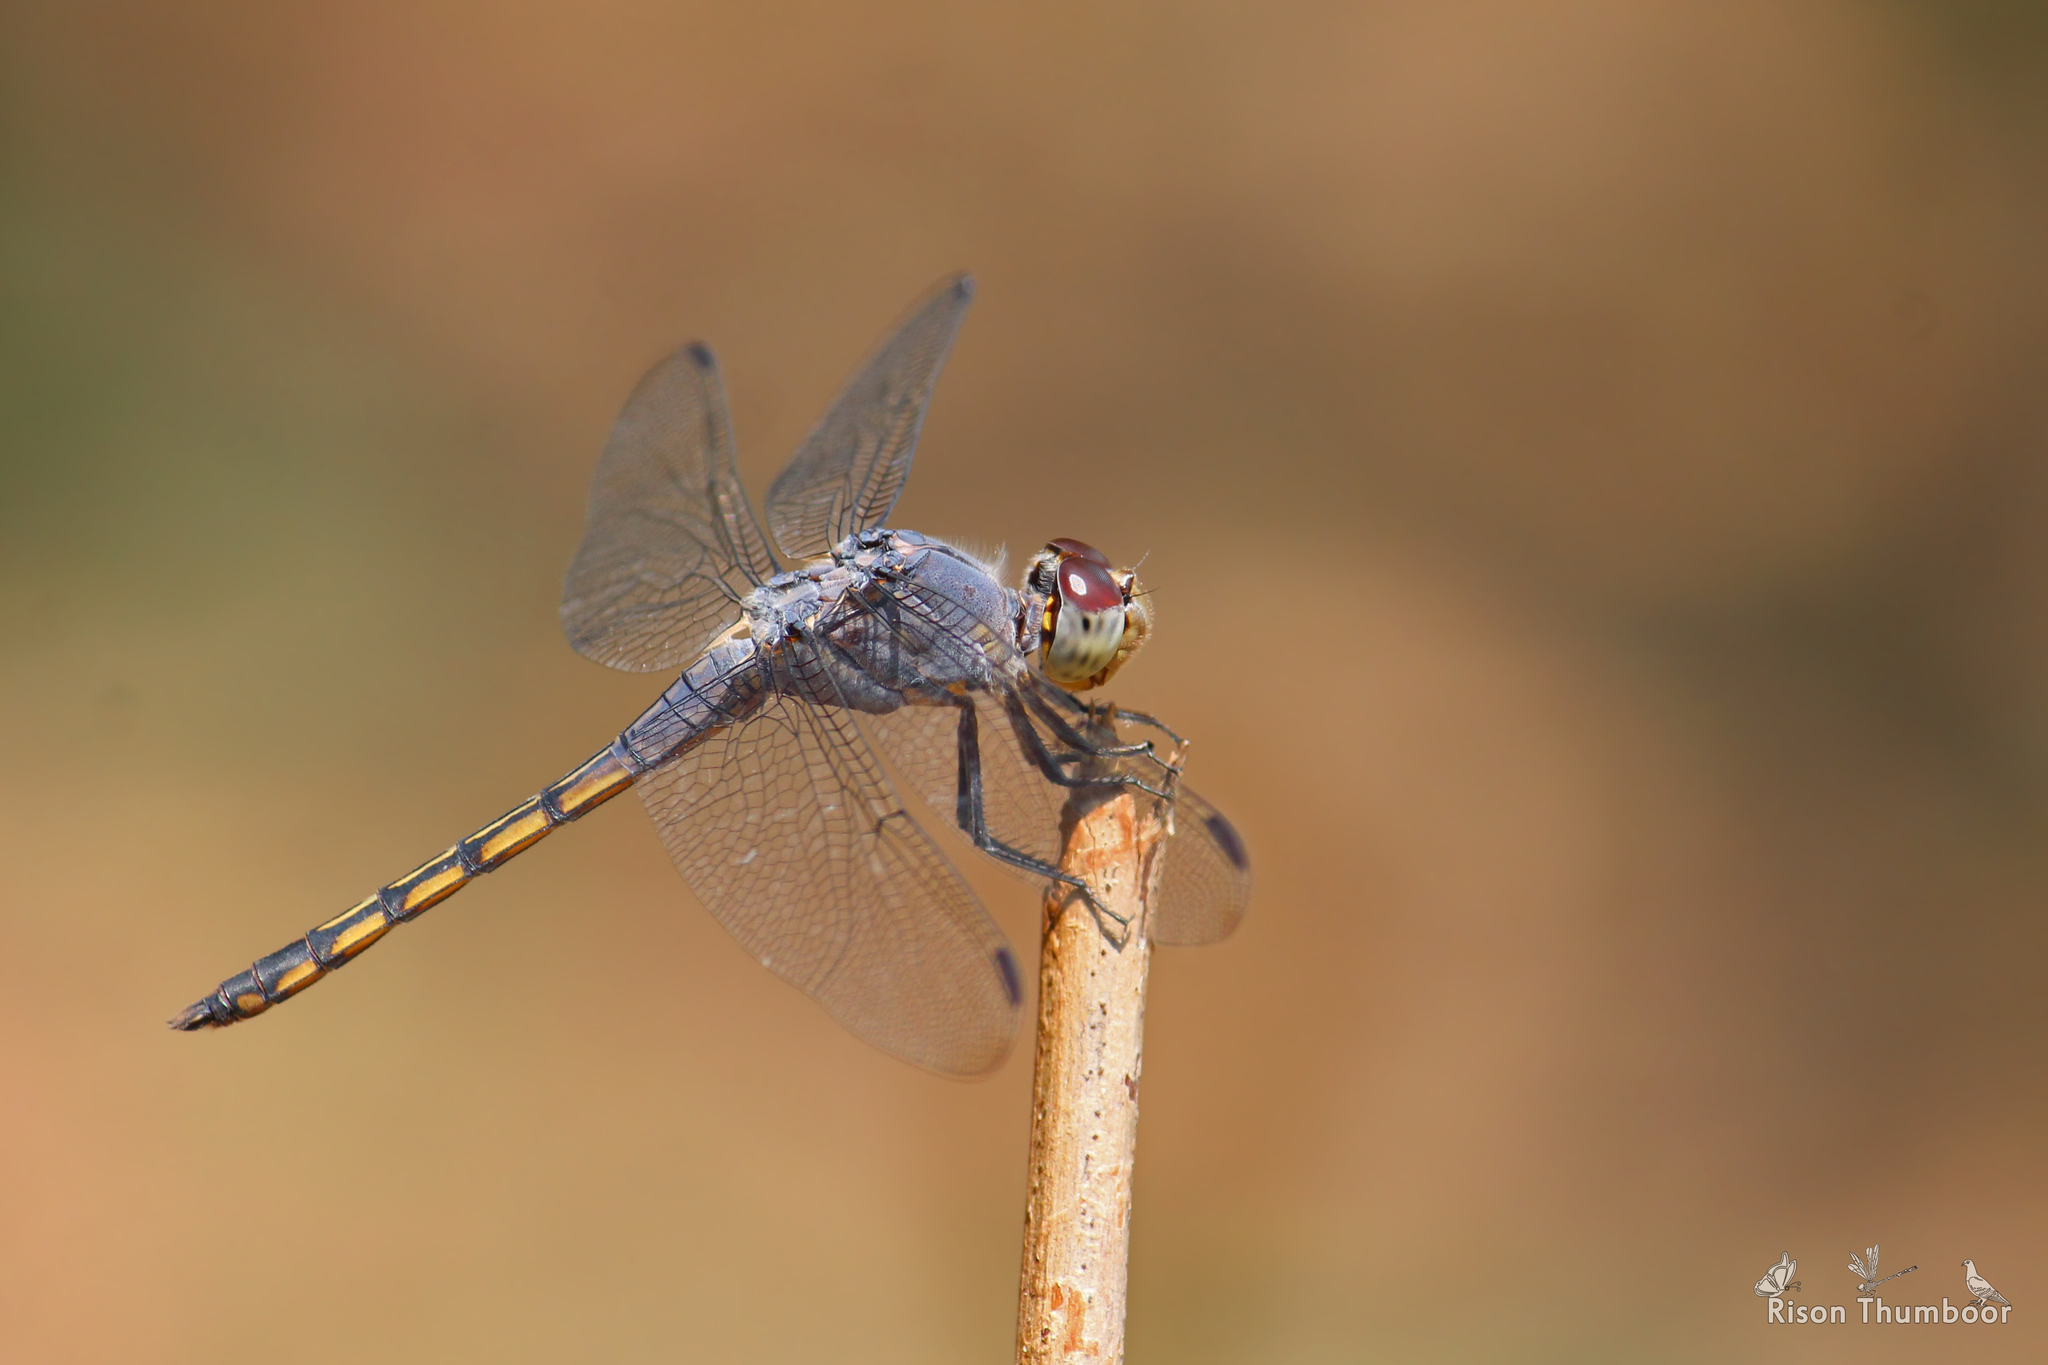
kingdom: Animalia
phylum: Arthropoda
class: Insecta
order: Odonata
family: Libellulidae
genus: Potamarcha
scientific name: Potamarcha congener
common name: Blue chaser
